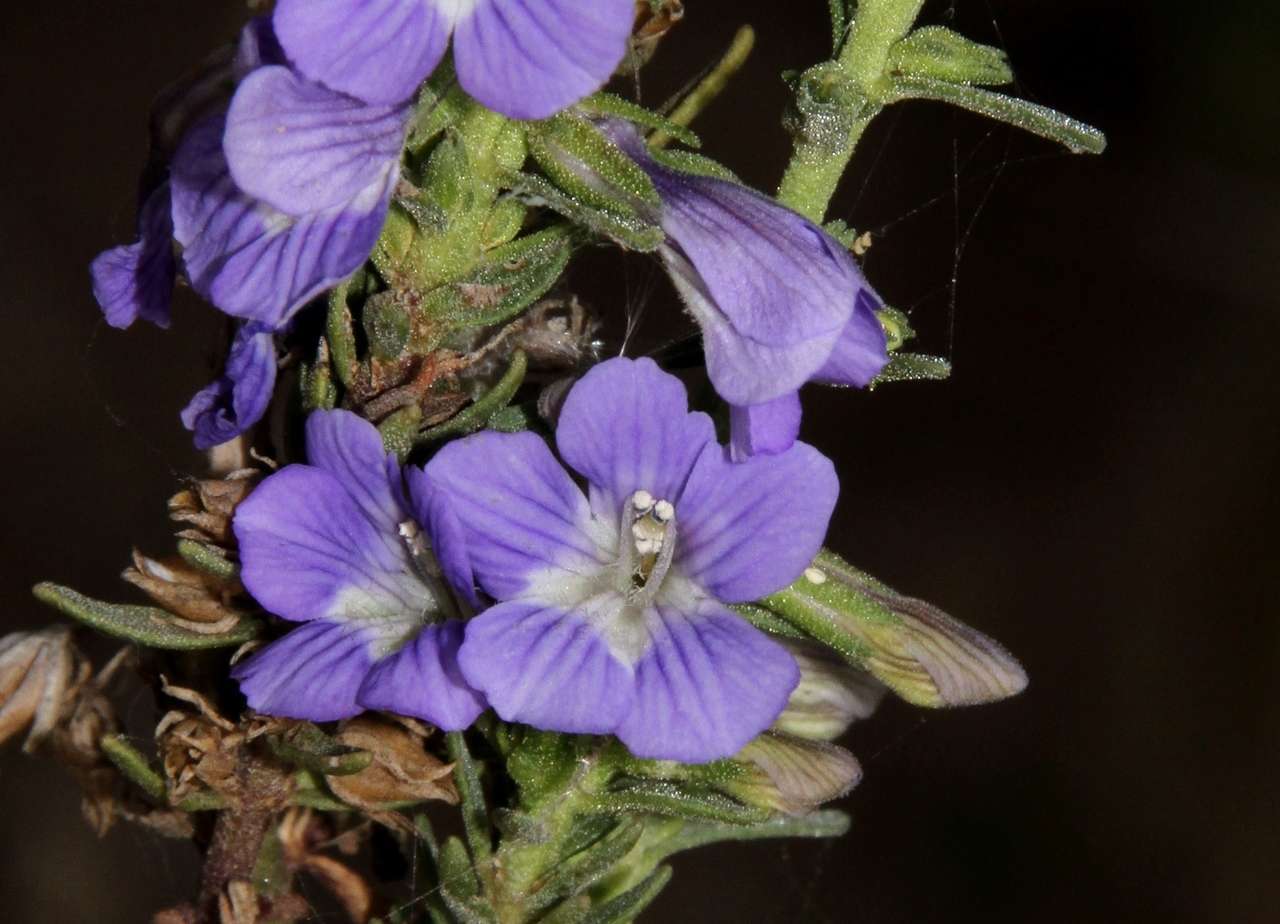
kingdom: Plantae
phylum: Tracheophyta
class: Magnoliopsida
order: Lamiales
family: Plantaginaceae
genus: Stemodia
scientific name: Stemodia florulenta
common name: Bluerod
